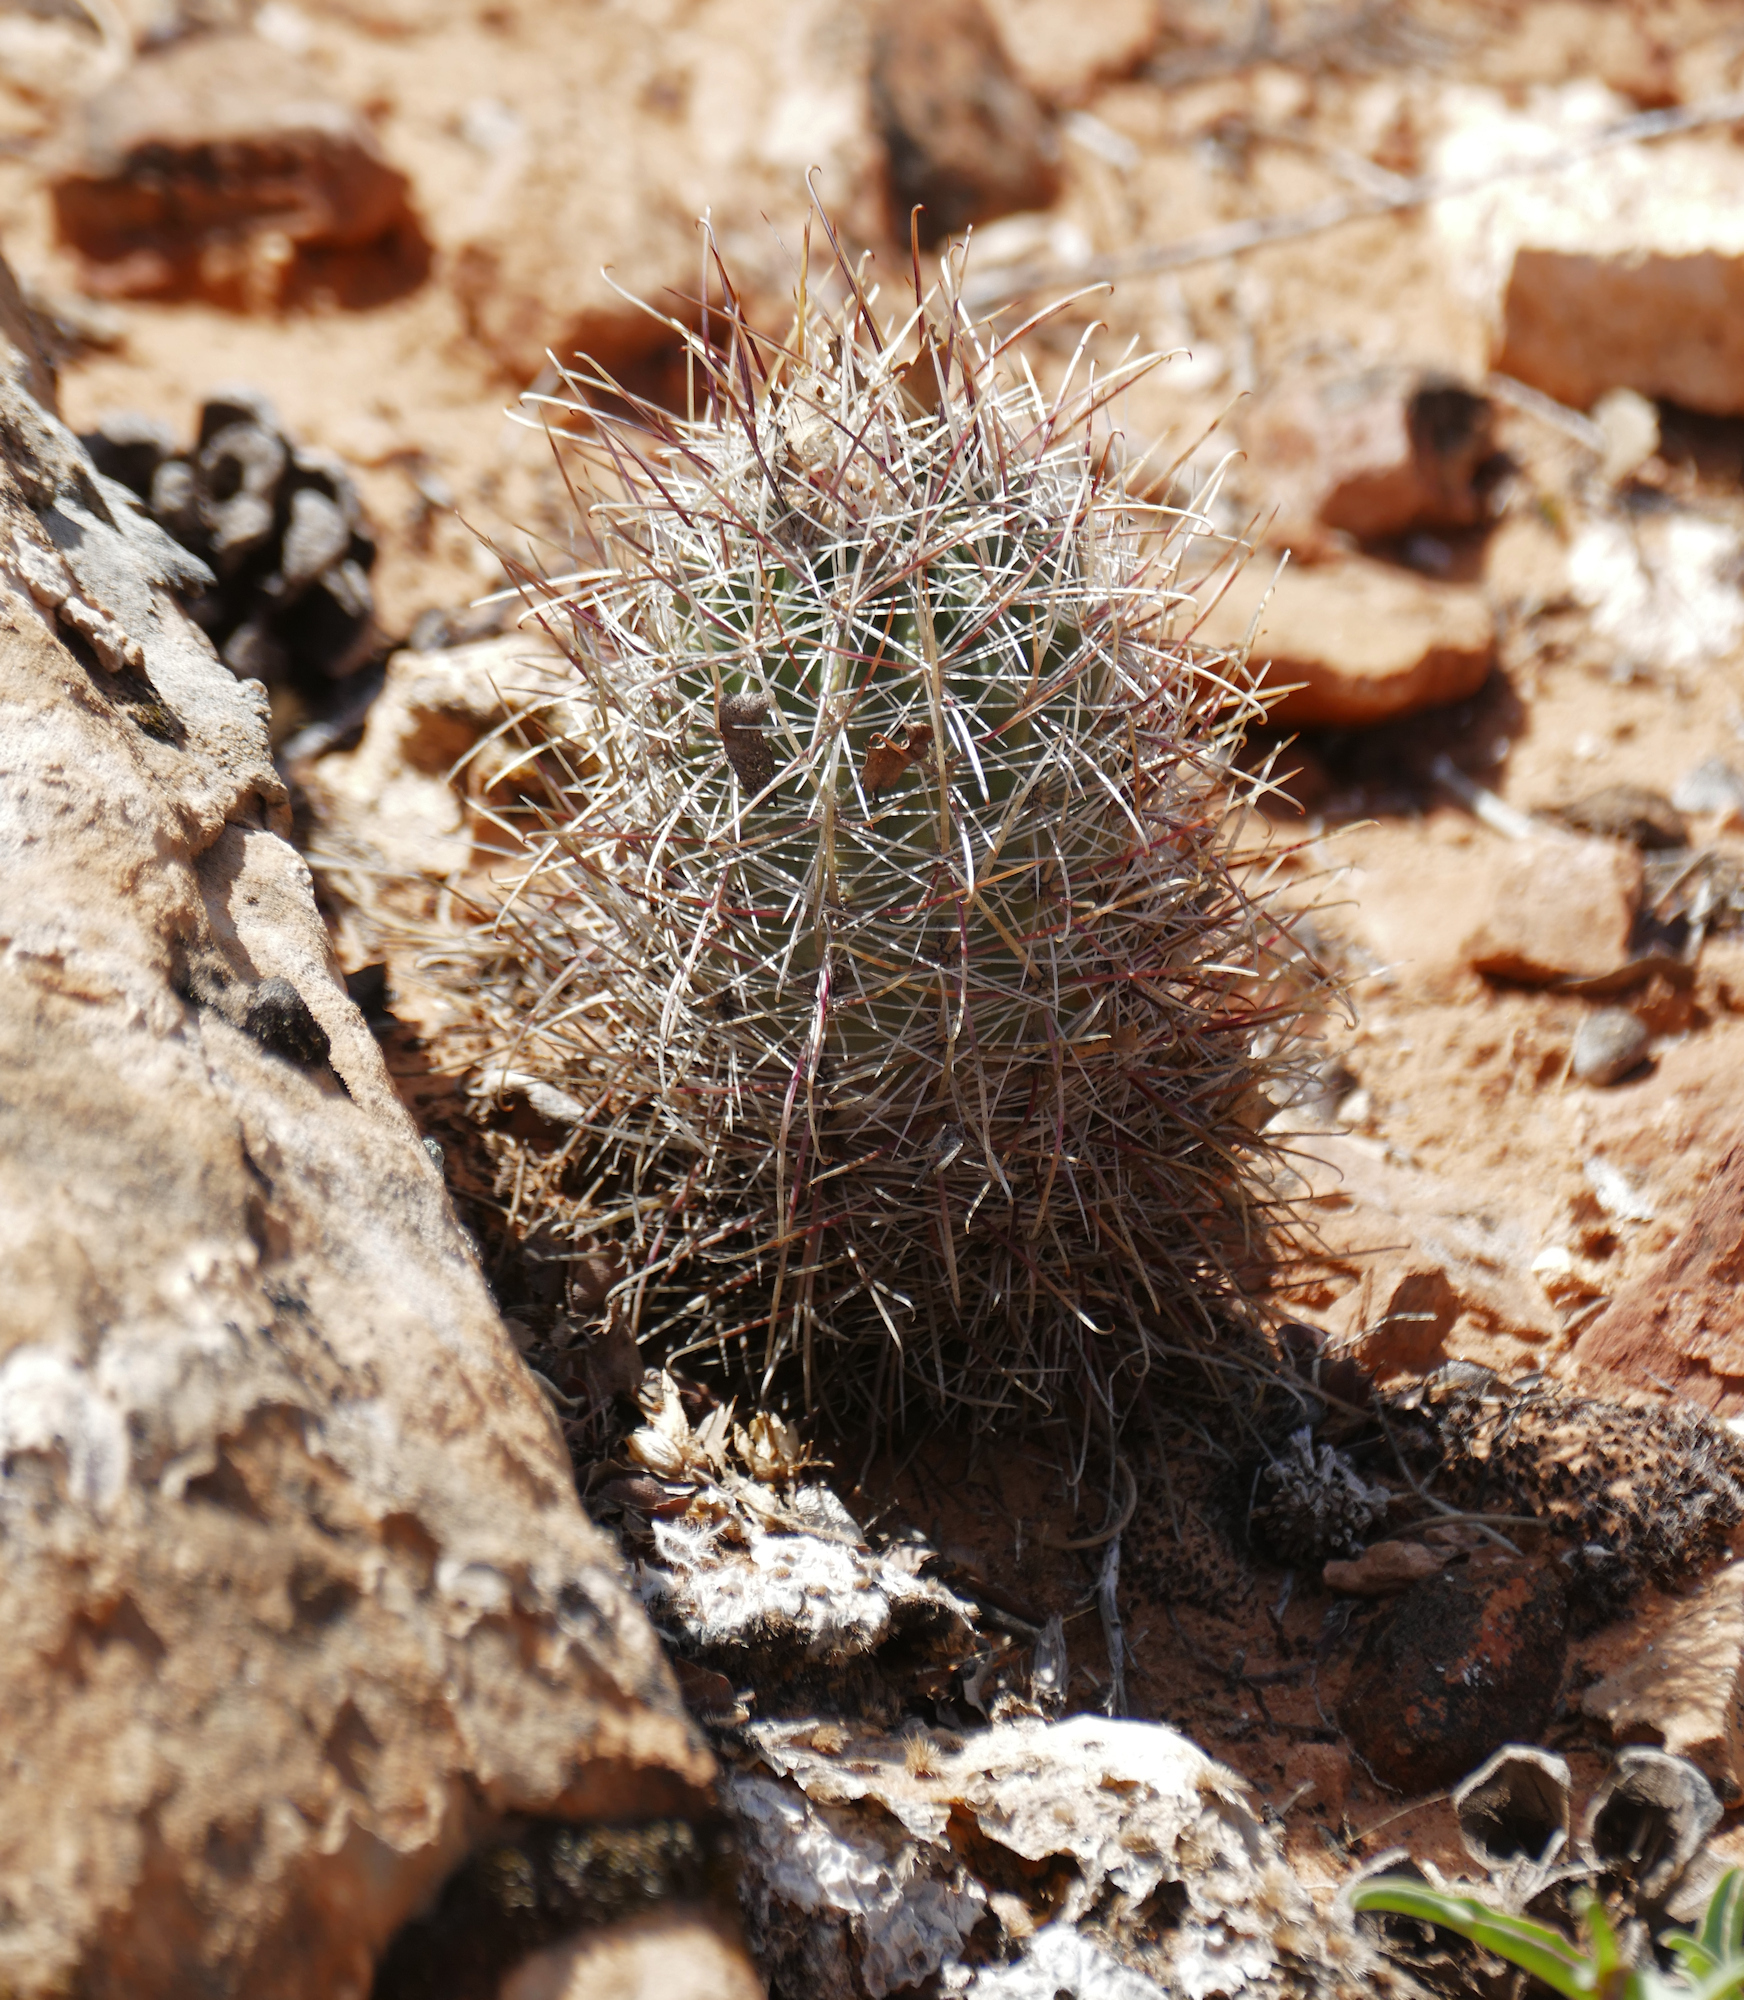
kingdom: Plantae
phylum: Tracheophyta
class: Magnoliopsida
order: Caryophyllales
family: Cactaceae
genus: Sclerocactus
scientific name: Sclerocactus parviflorus
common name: Small-flower fishhook cactus
